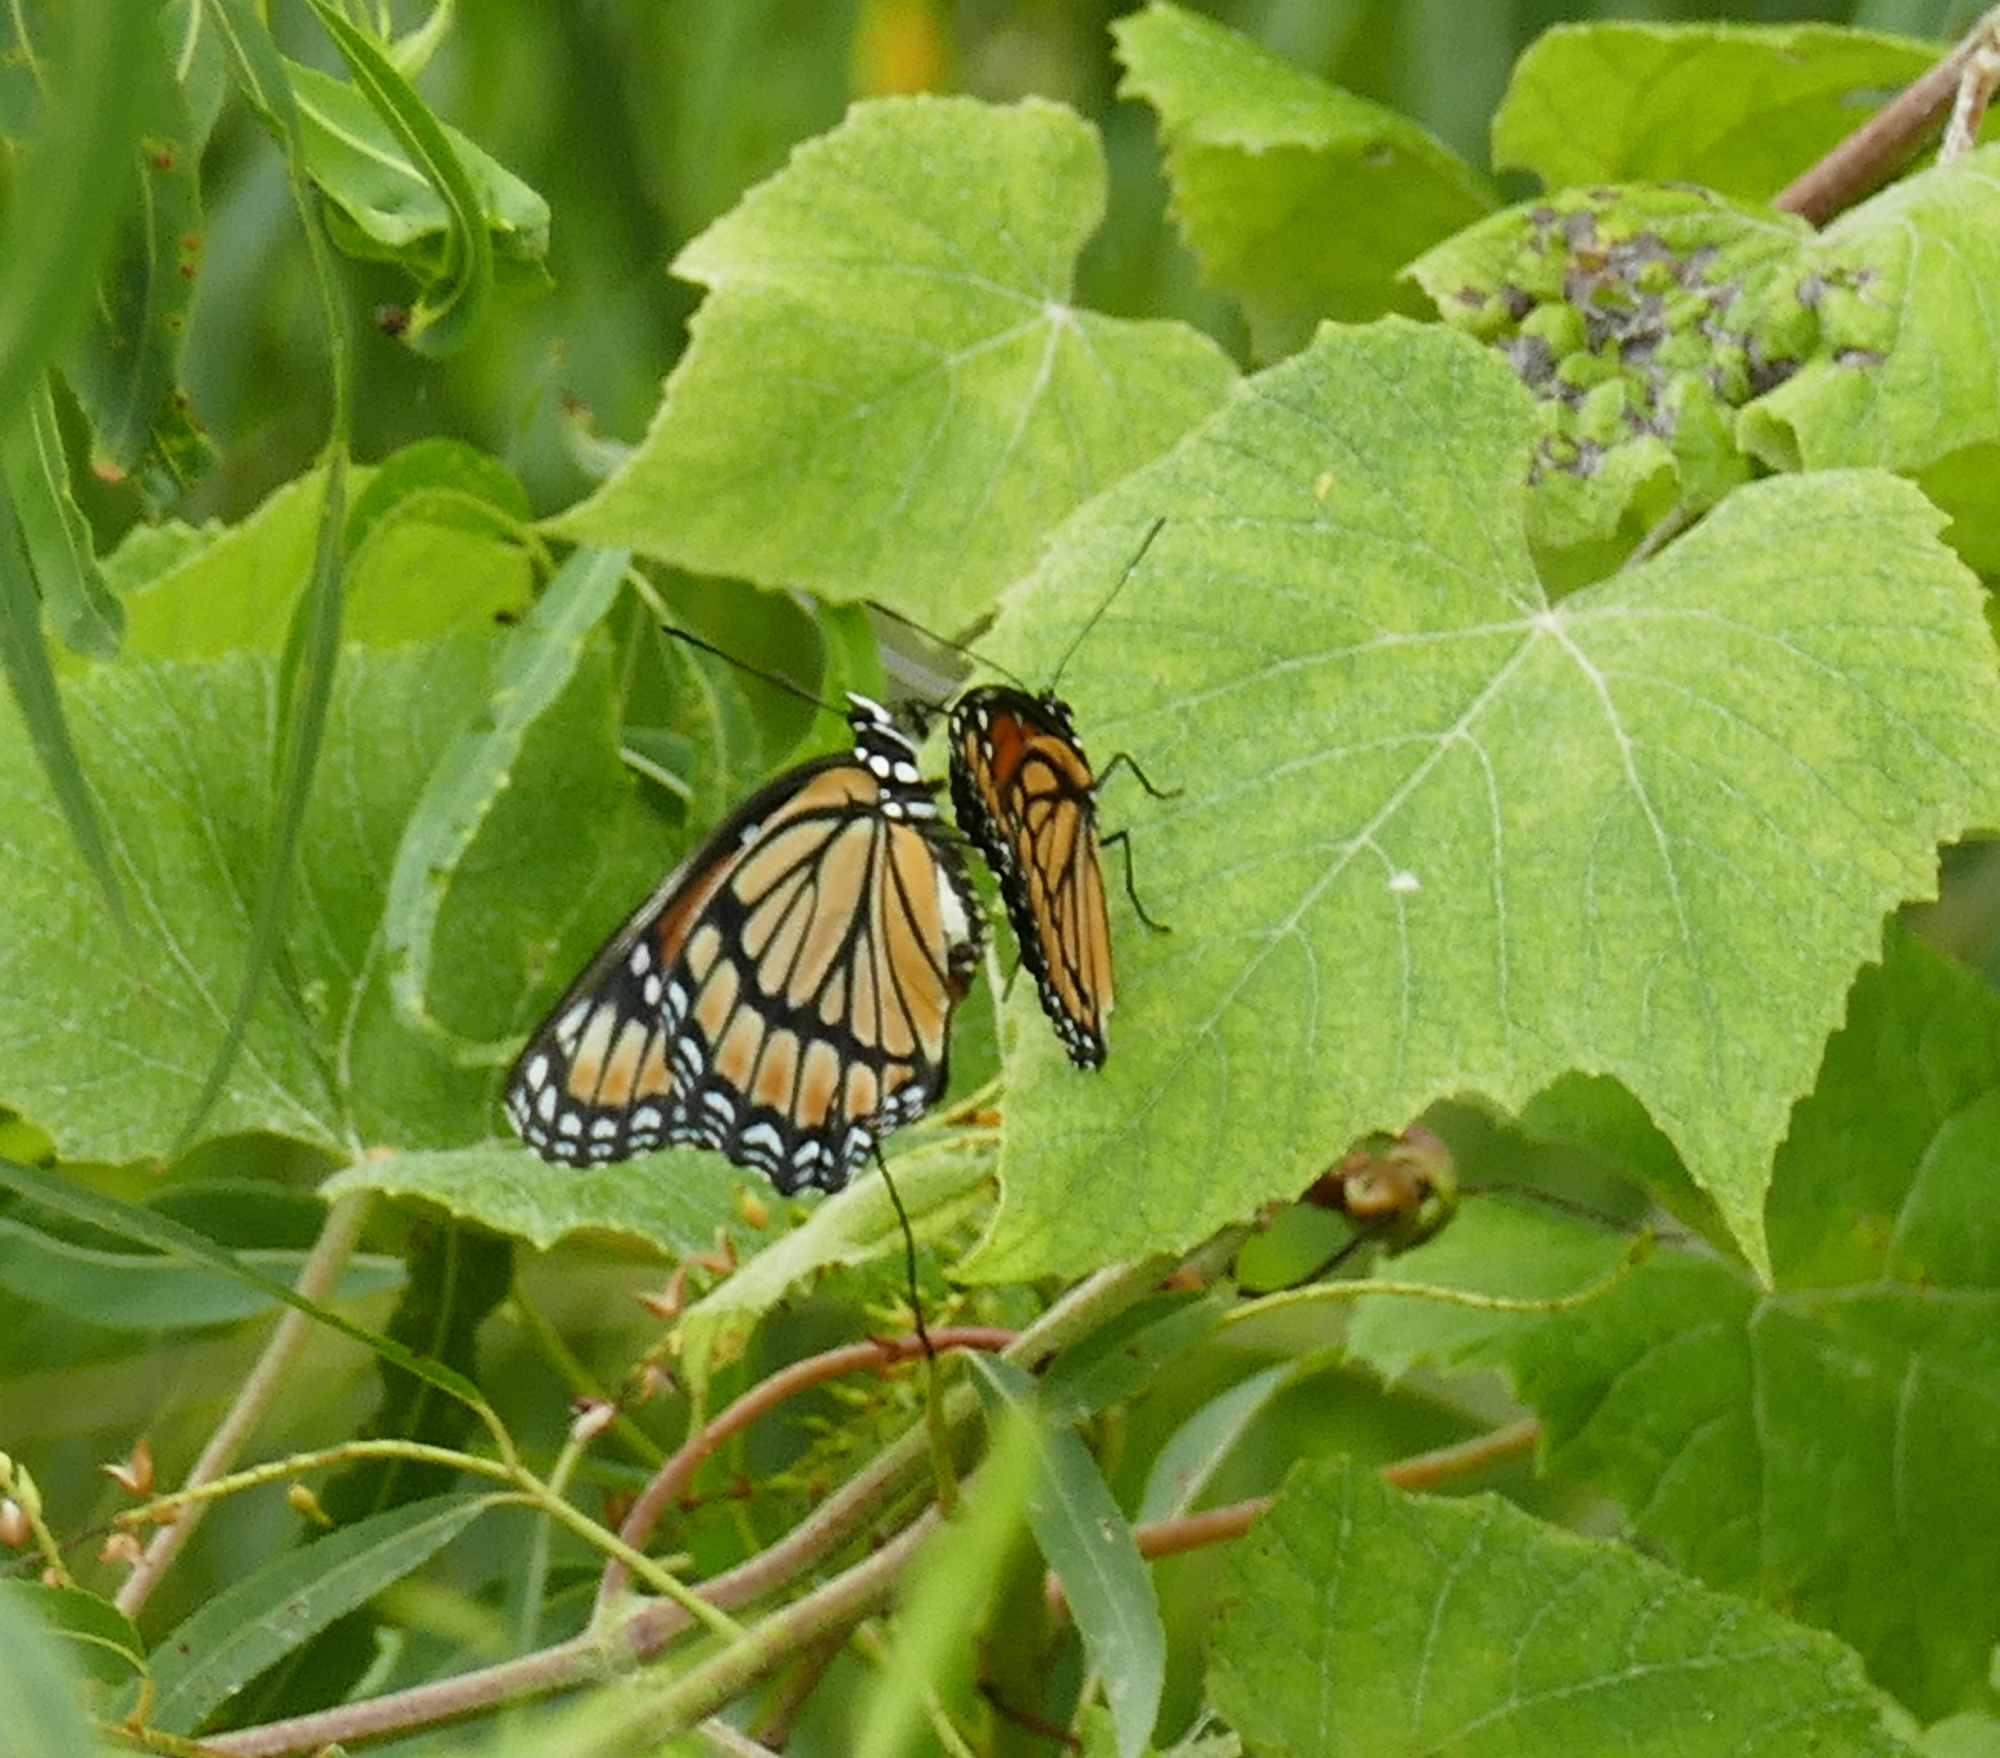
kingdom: Animalia
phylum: Arthropoda
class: Insecta
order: Lepidoptera
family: Nymphalidae
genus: Limenitis
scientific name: Limenitis archippus
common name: Viceroy
